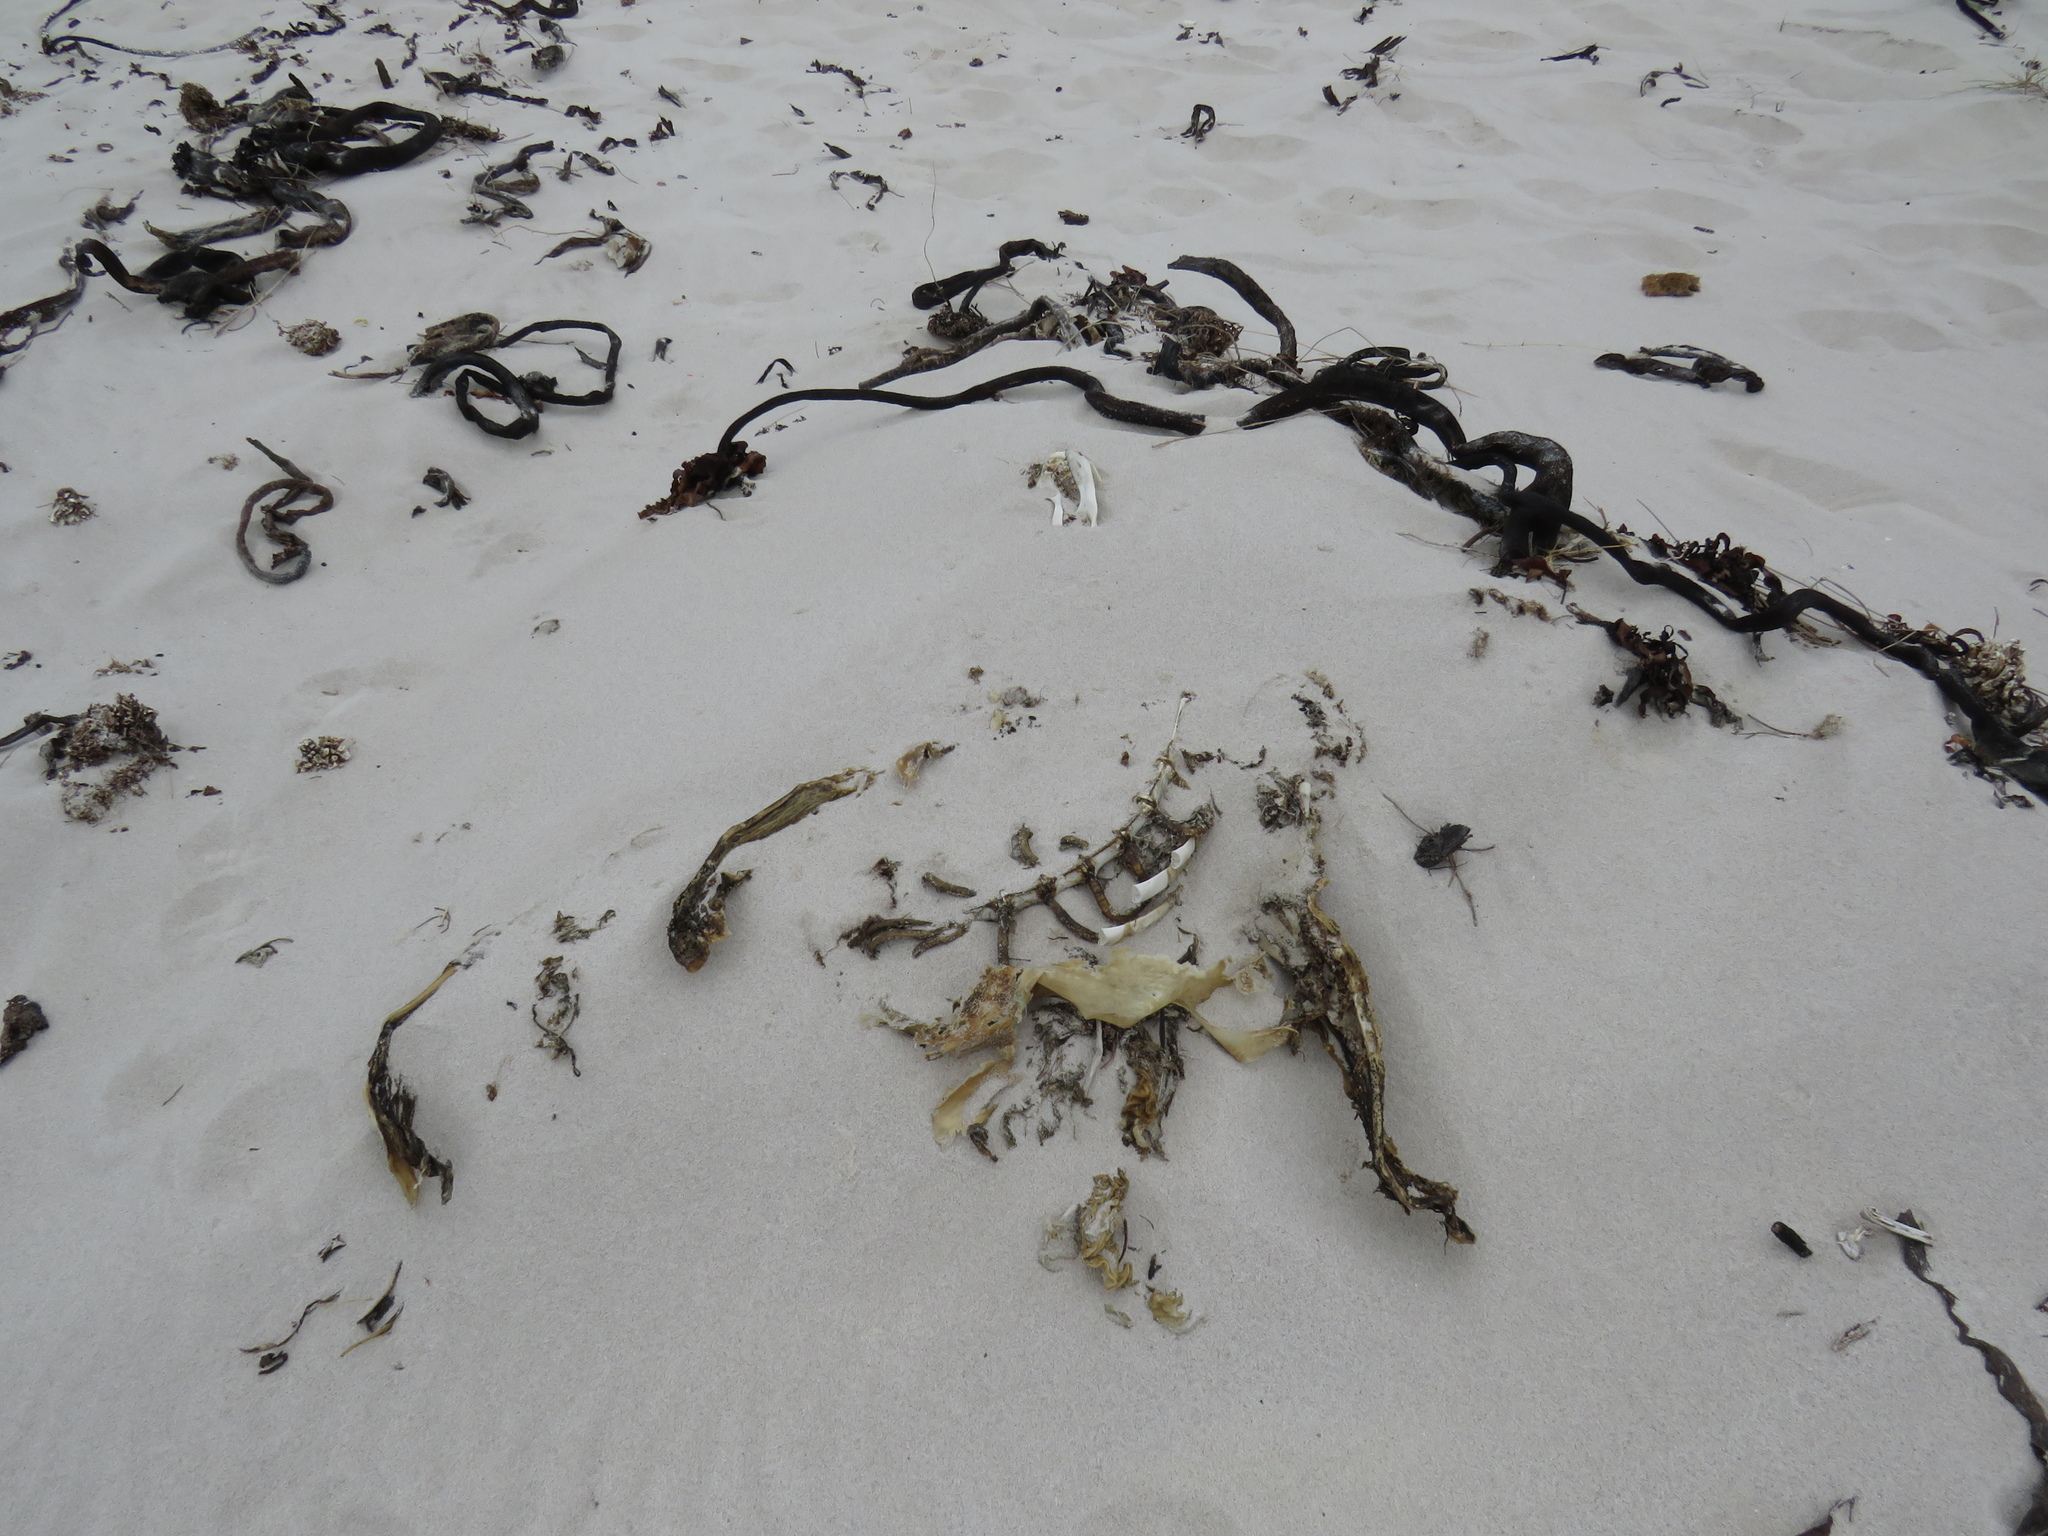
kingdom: Animalia
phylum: Chordata
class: Mammalia
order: Carnivora
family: Otariidae
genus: Arctocephalus
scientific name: Arctocephalus pusillus
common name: Brown fur seal
